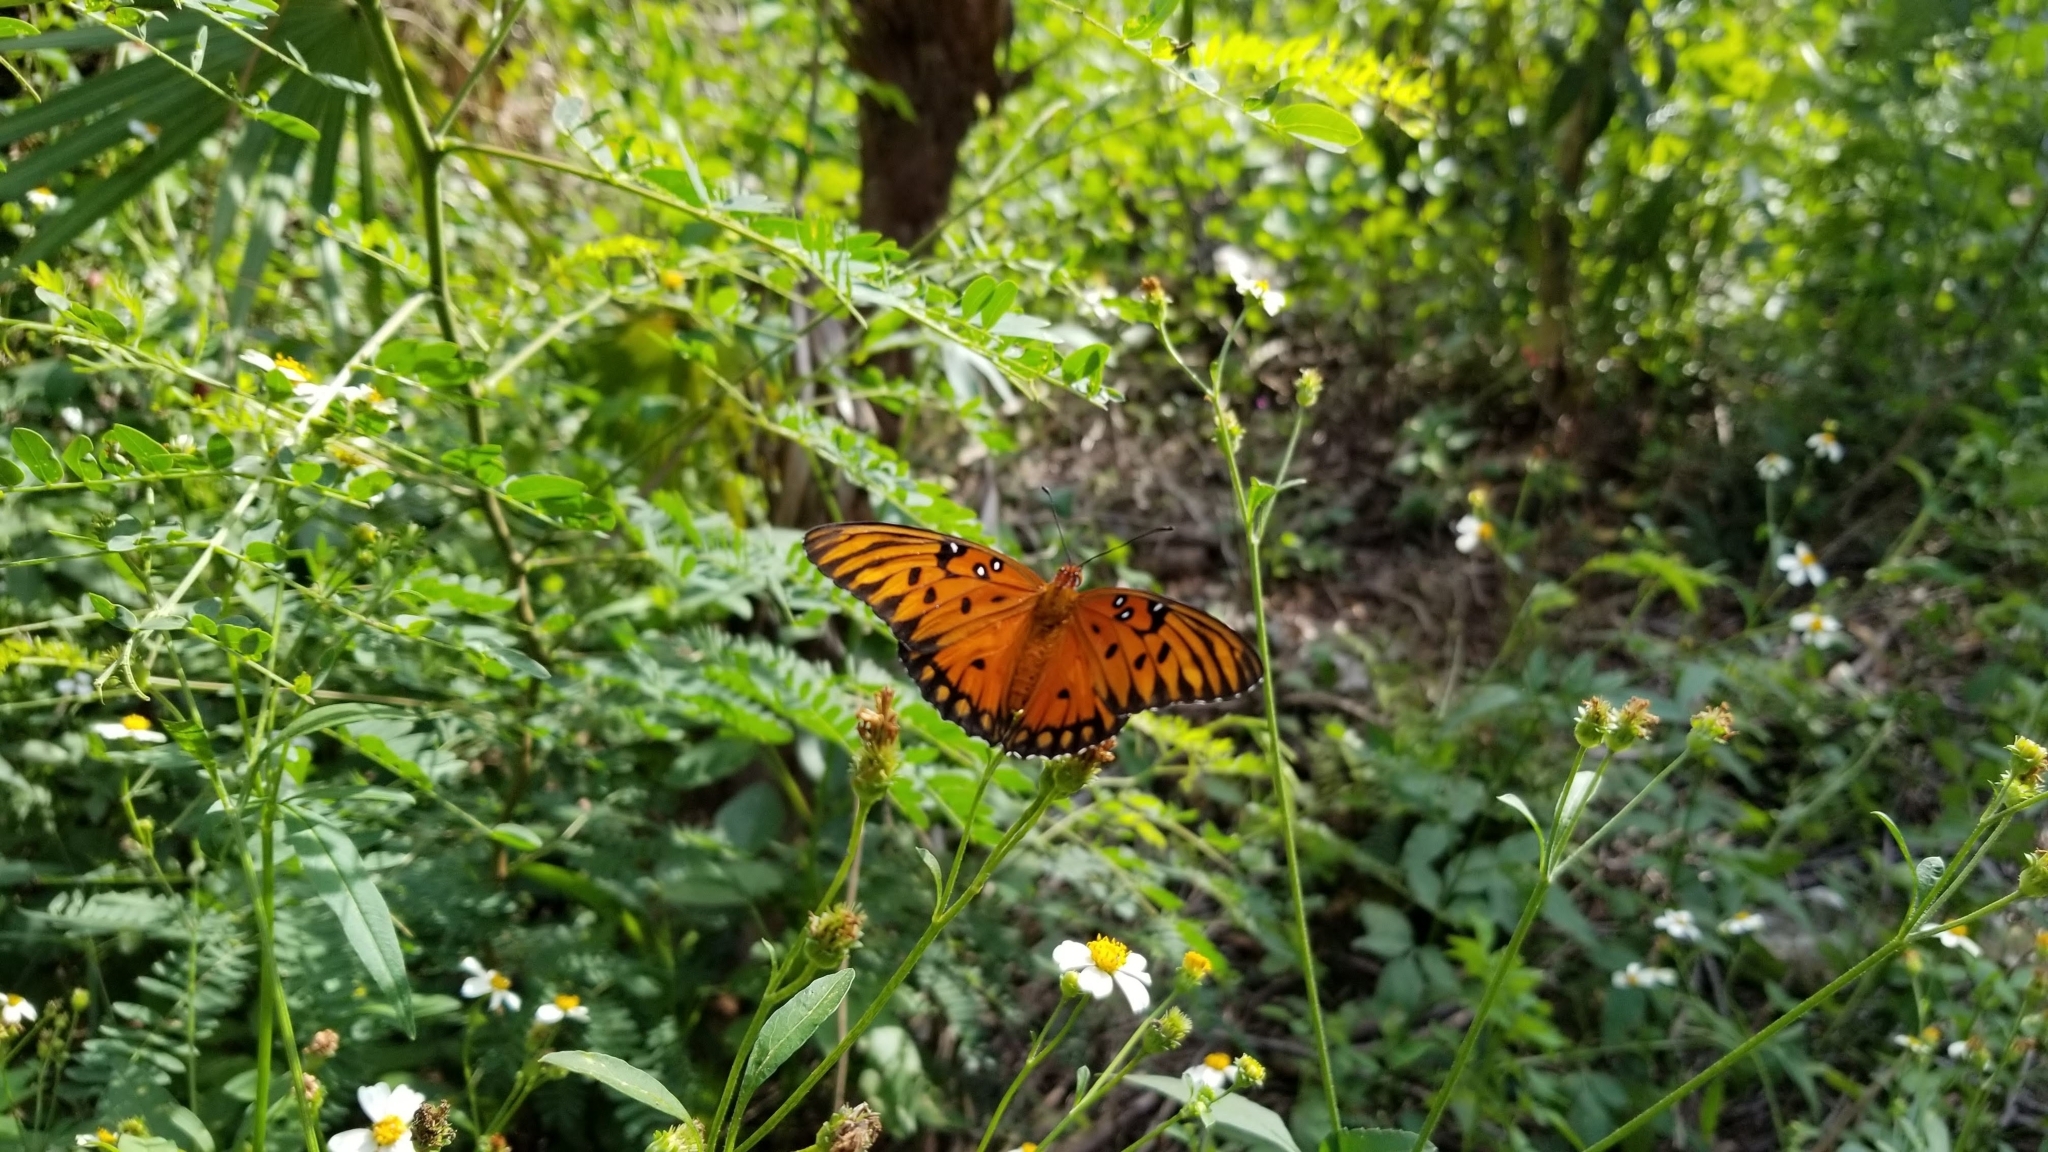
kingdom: Animalia
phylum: Arthropoda
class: Insecta
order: Lepidoptera
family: Nymphalidae
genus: Dione
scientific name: Dione vanillae
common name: Gulf fritillary
